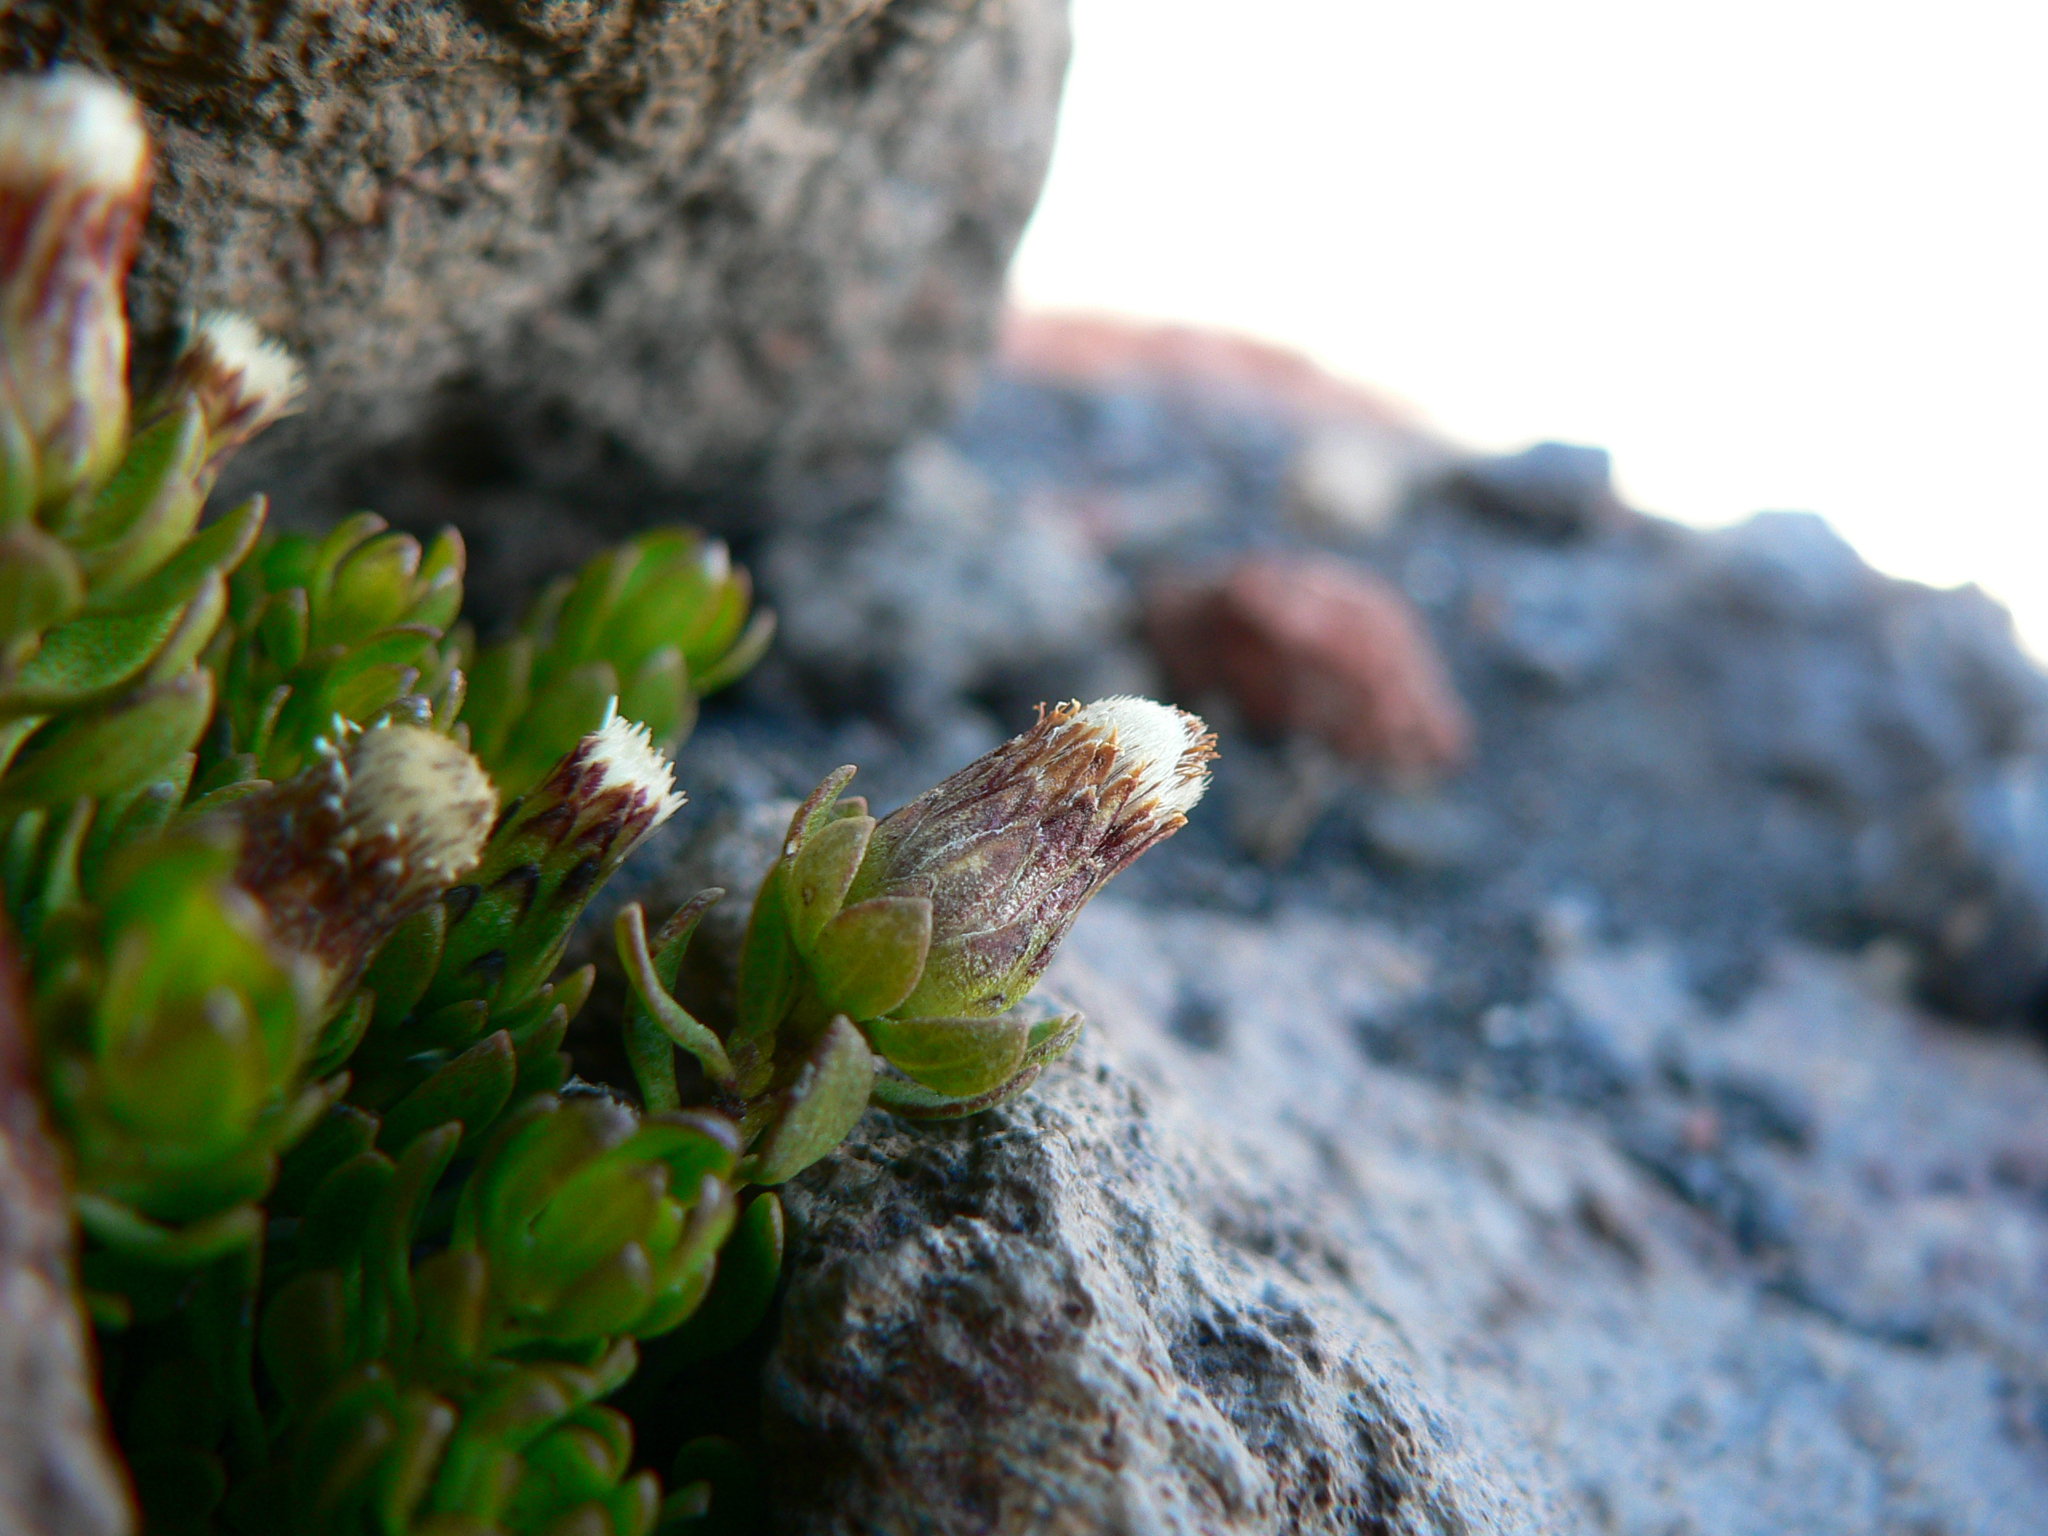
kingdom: Plantae
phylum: Tracheophyta
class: Magnoliopsida
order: Asterales
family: Asteraceae
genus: Baccharis
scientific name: Baccharis caespitosa
